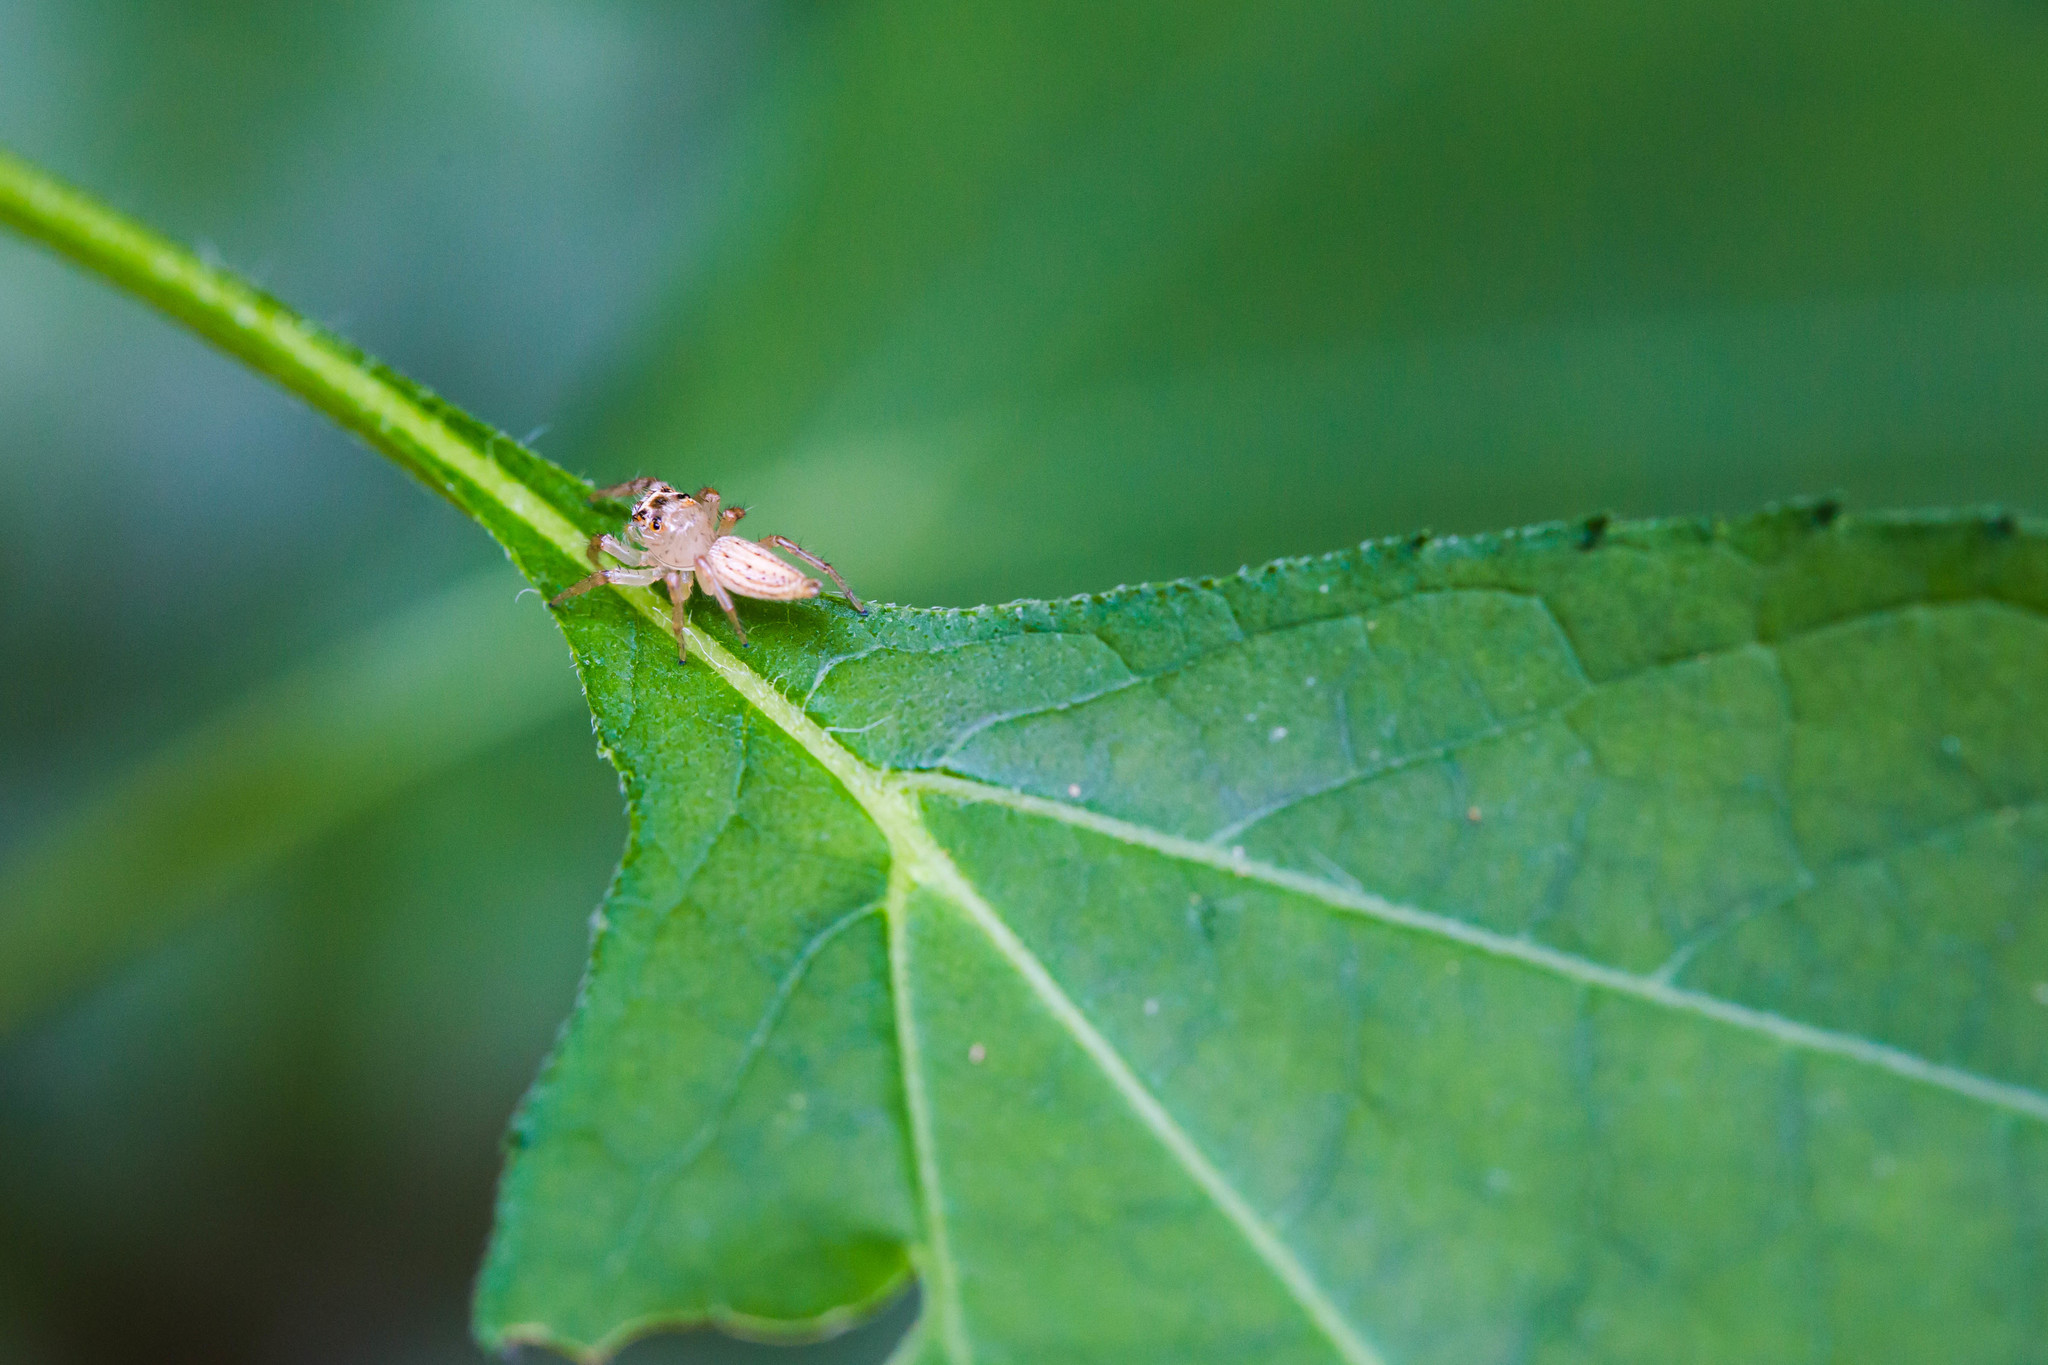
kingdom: Animalia
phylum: Arthropoda
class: Arachnida
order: Araneae
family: Salticidae
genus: Colonus
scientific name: Colonus sylvanus
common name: Jumping spiders
